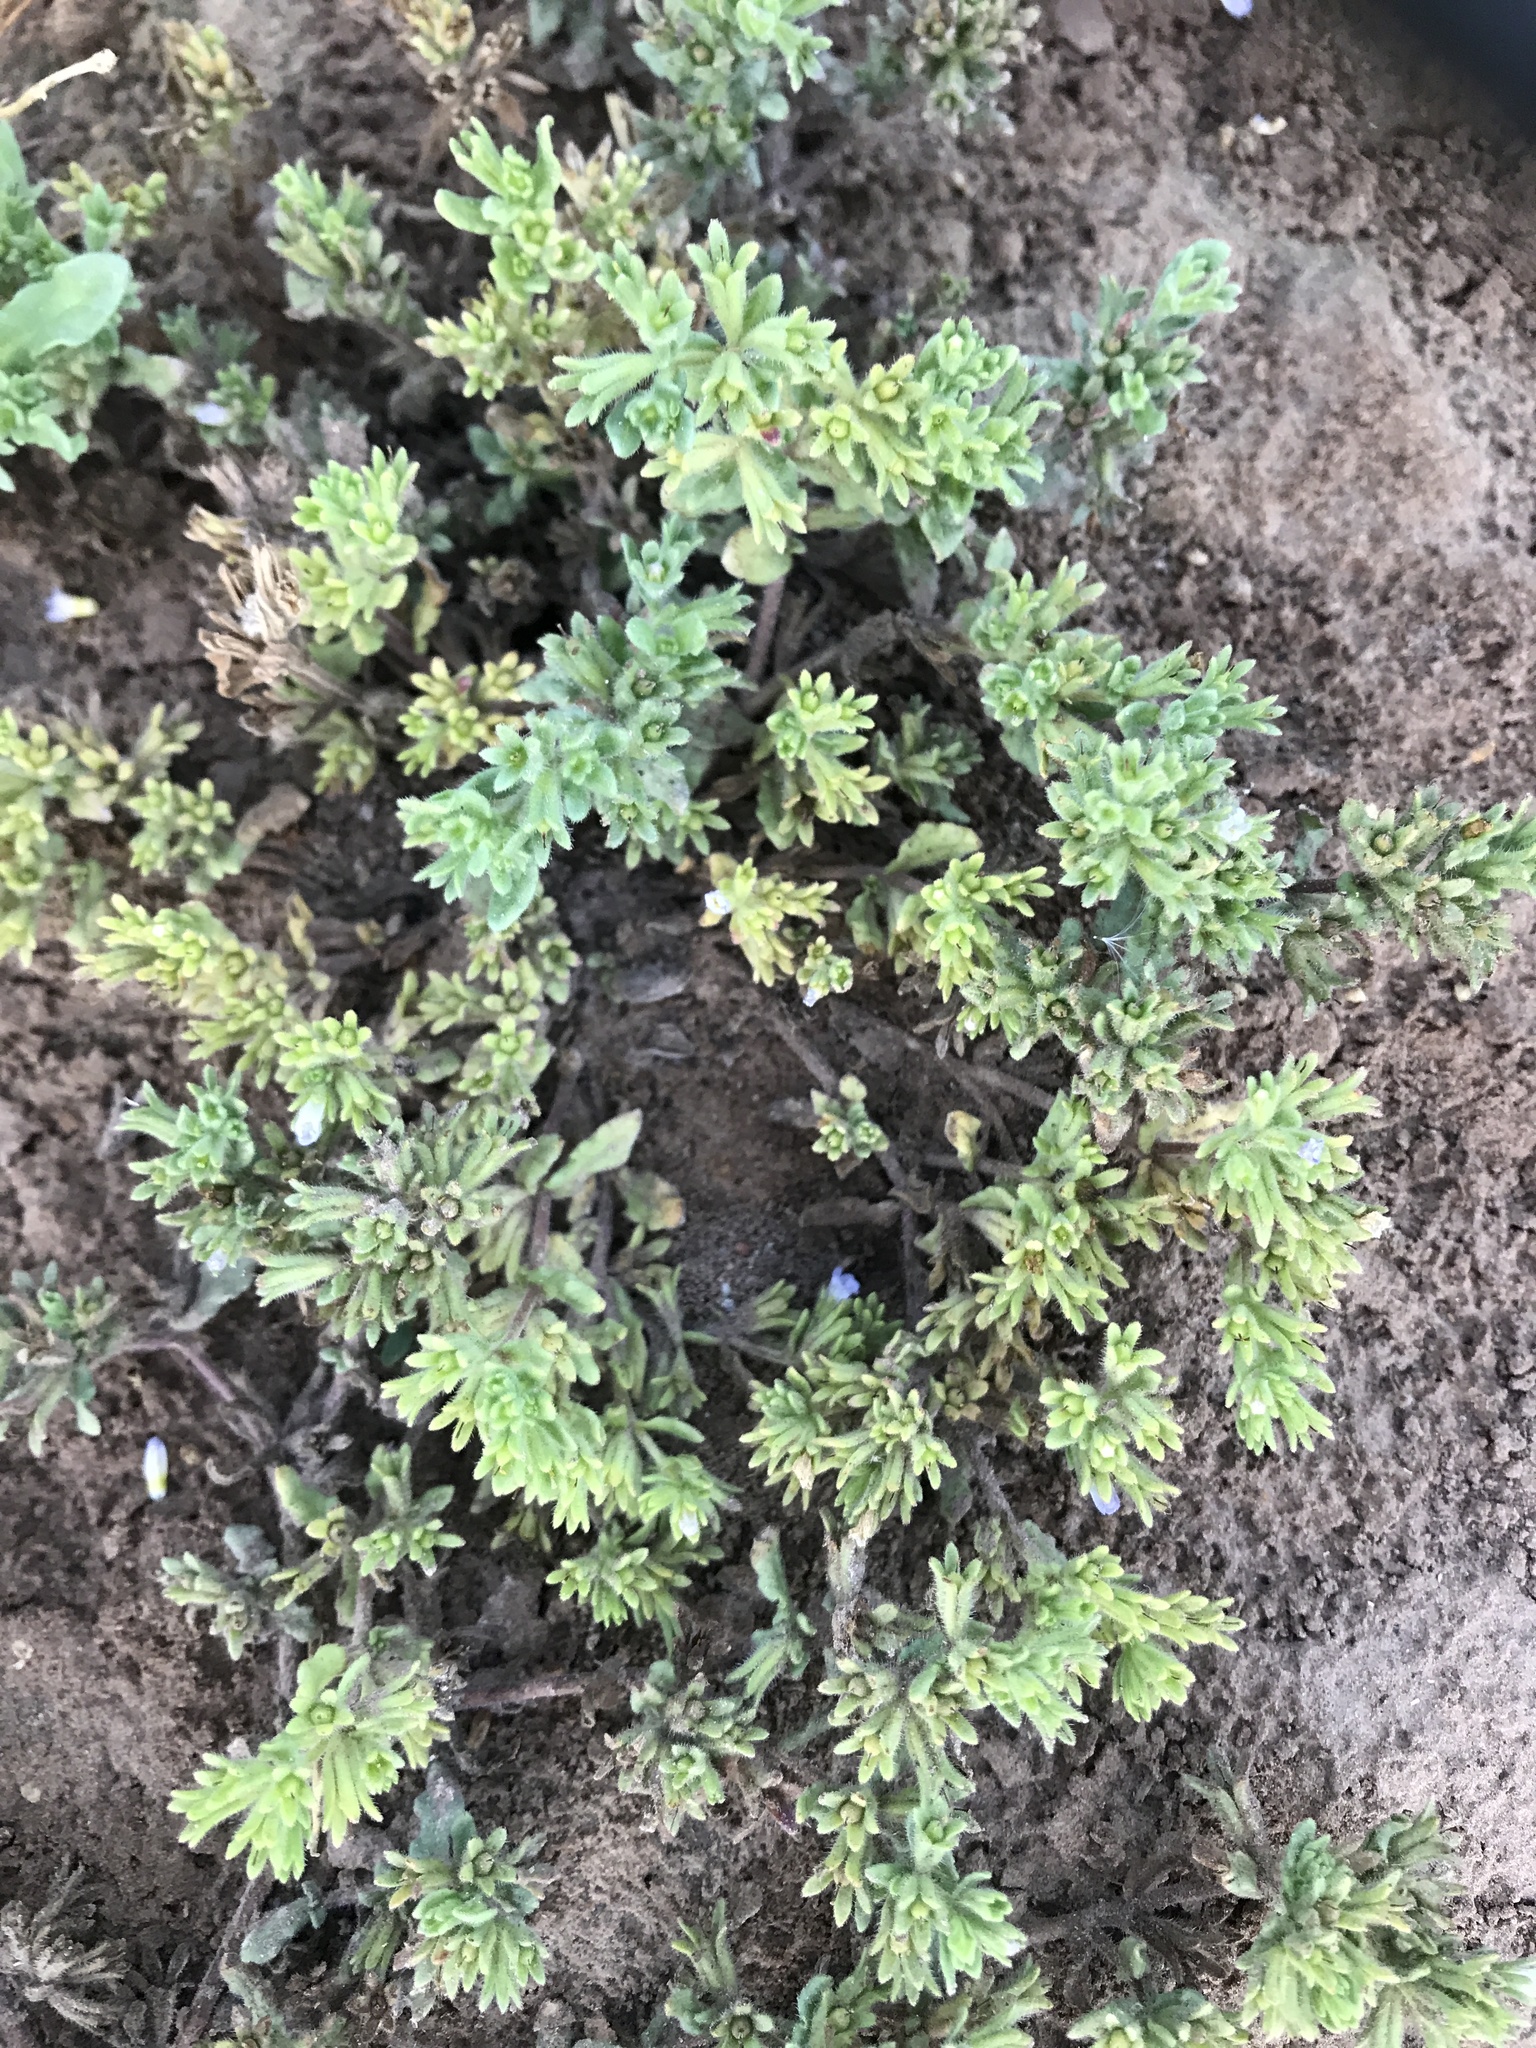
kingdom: Plantae
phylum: Tracheophyta
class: Magnoliopsida
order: Solanales
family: Solanaceae
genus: Calibrachoa
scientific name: Calibrachoa parviflora
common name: Seaside petunia
